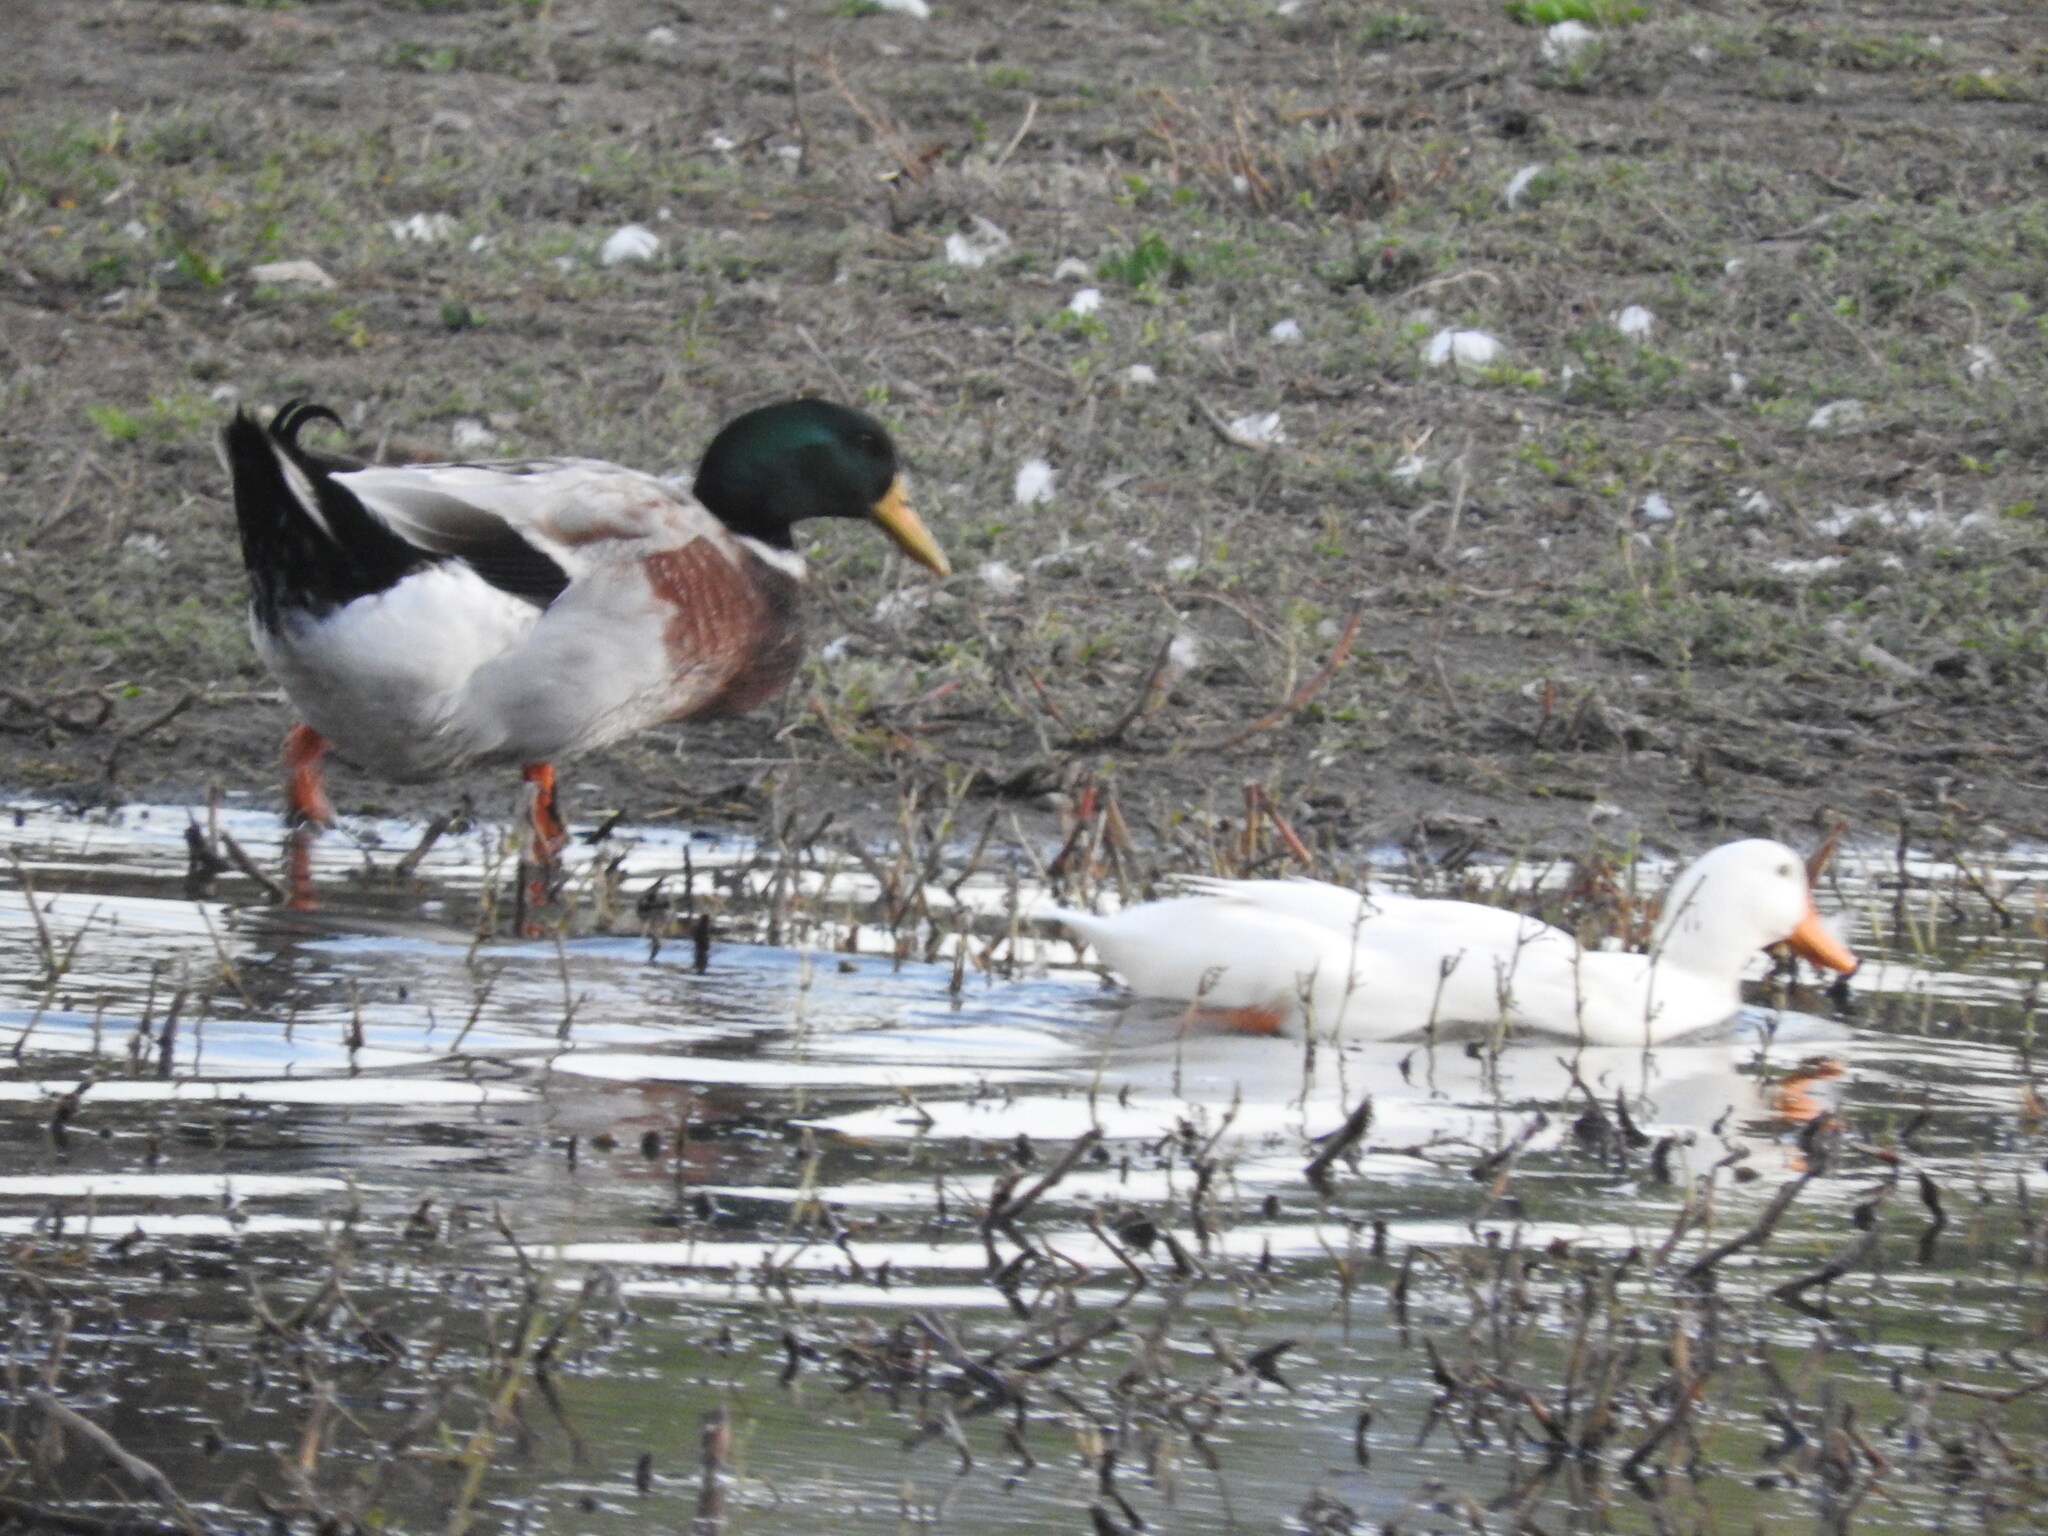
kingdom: Animalia
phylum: Chordata
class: Aves
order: Anseriformes
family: Anatidae
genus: Anas
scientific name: Anas platyrhynchos
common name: Mallard
